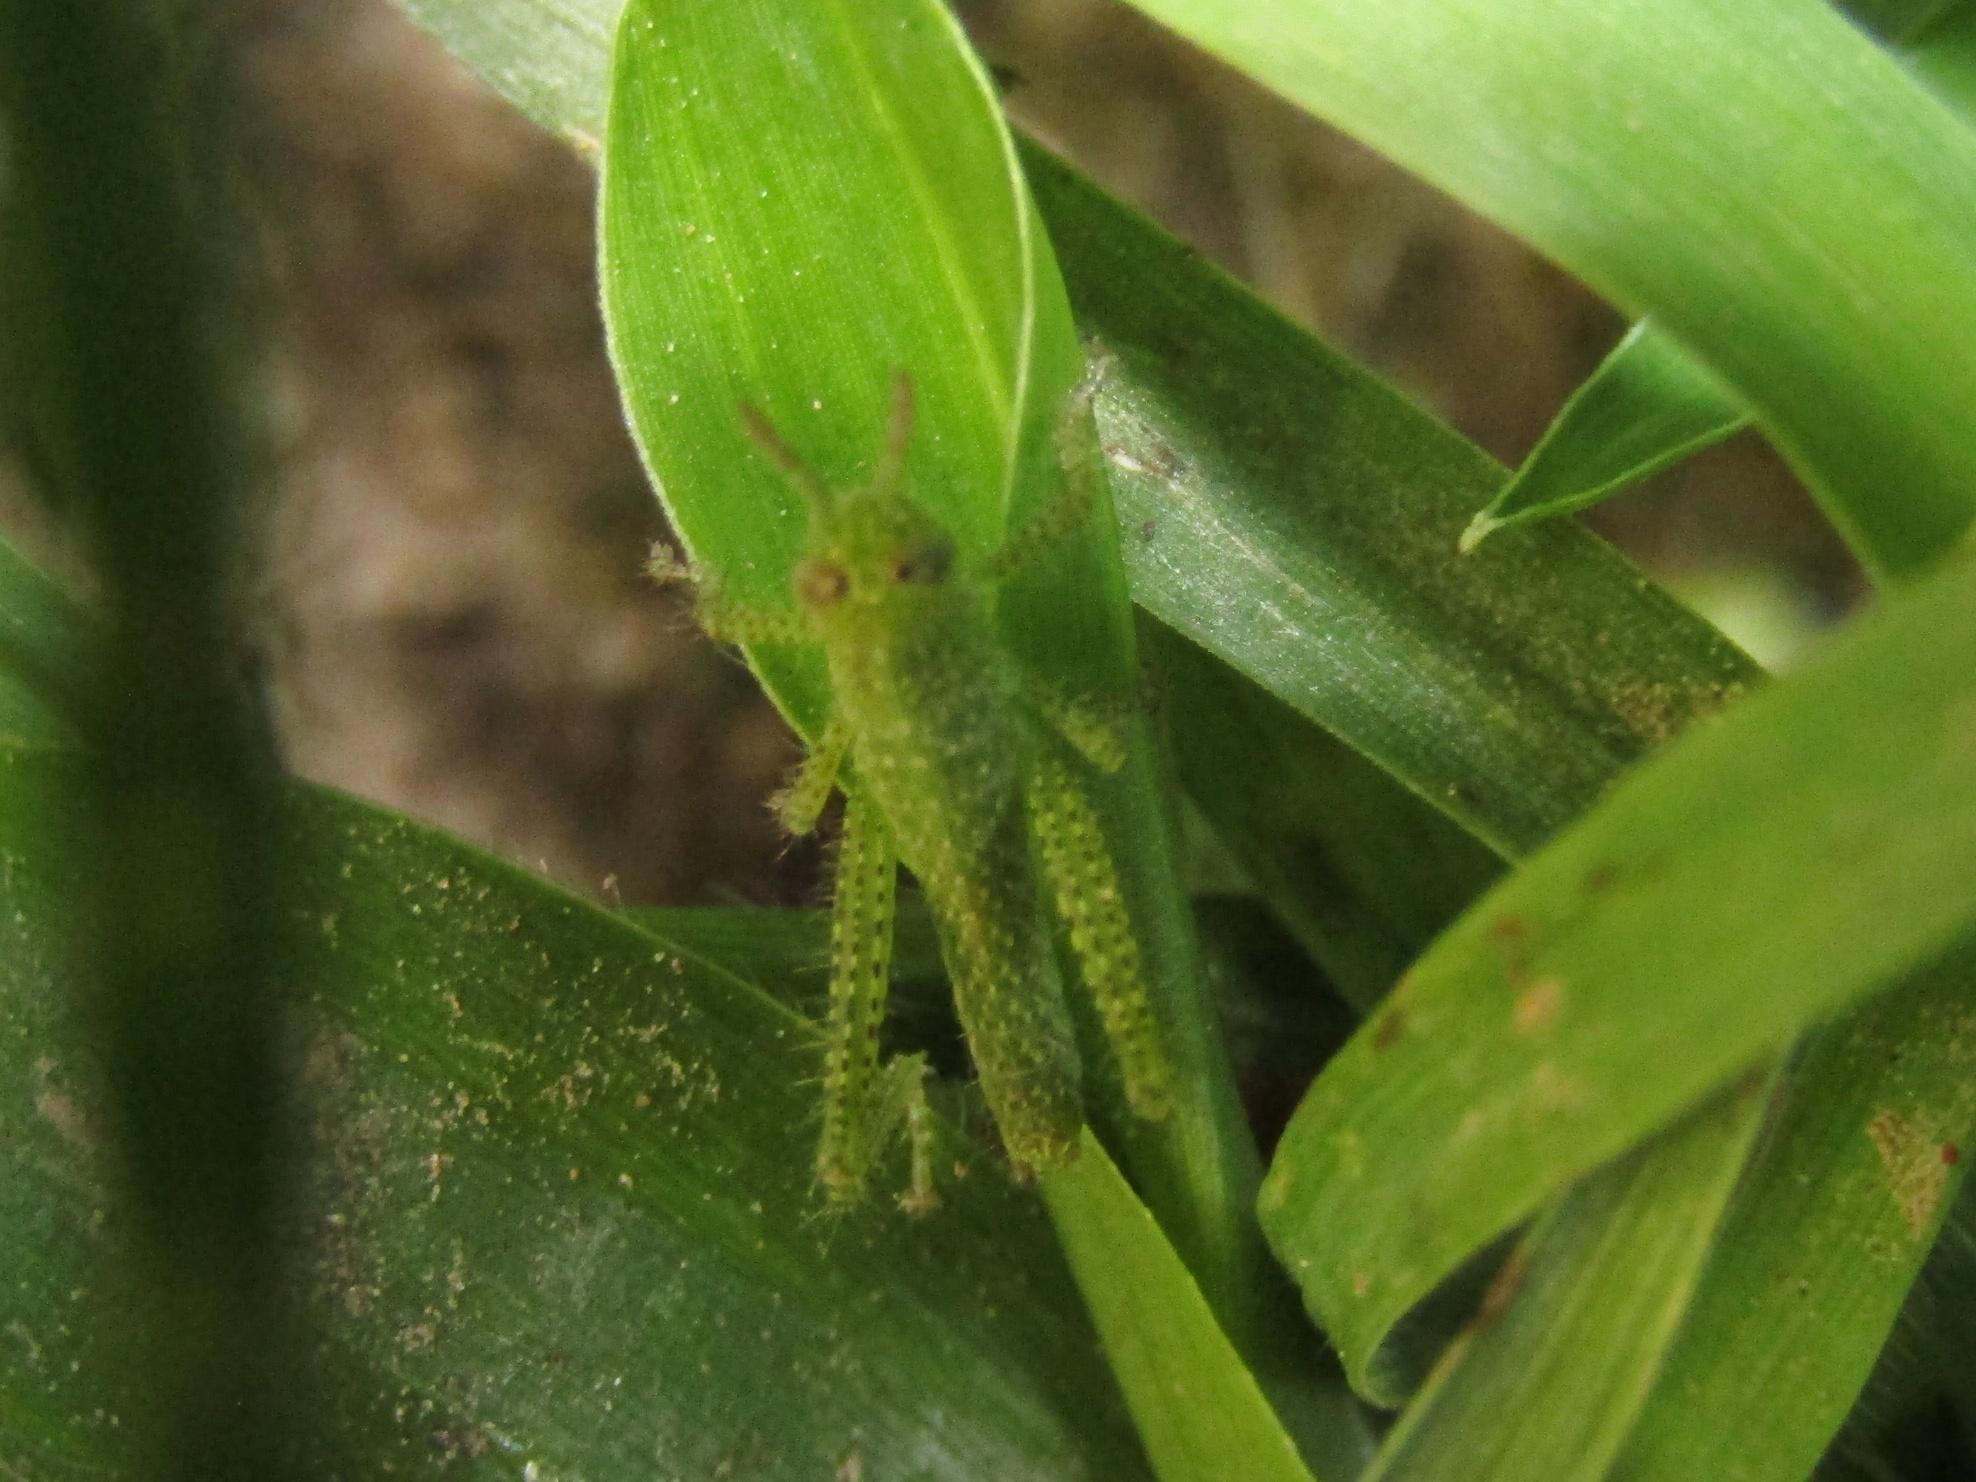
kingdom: Animalia
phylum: Arthropoda
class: Insecta
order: Orthoptera
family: Acrididae
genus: Schistocerca
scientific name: Schistocerca flavofasciata
